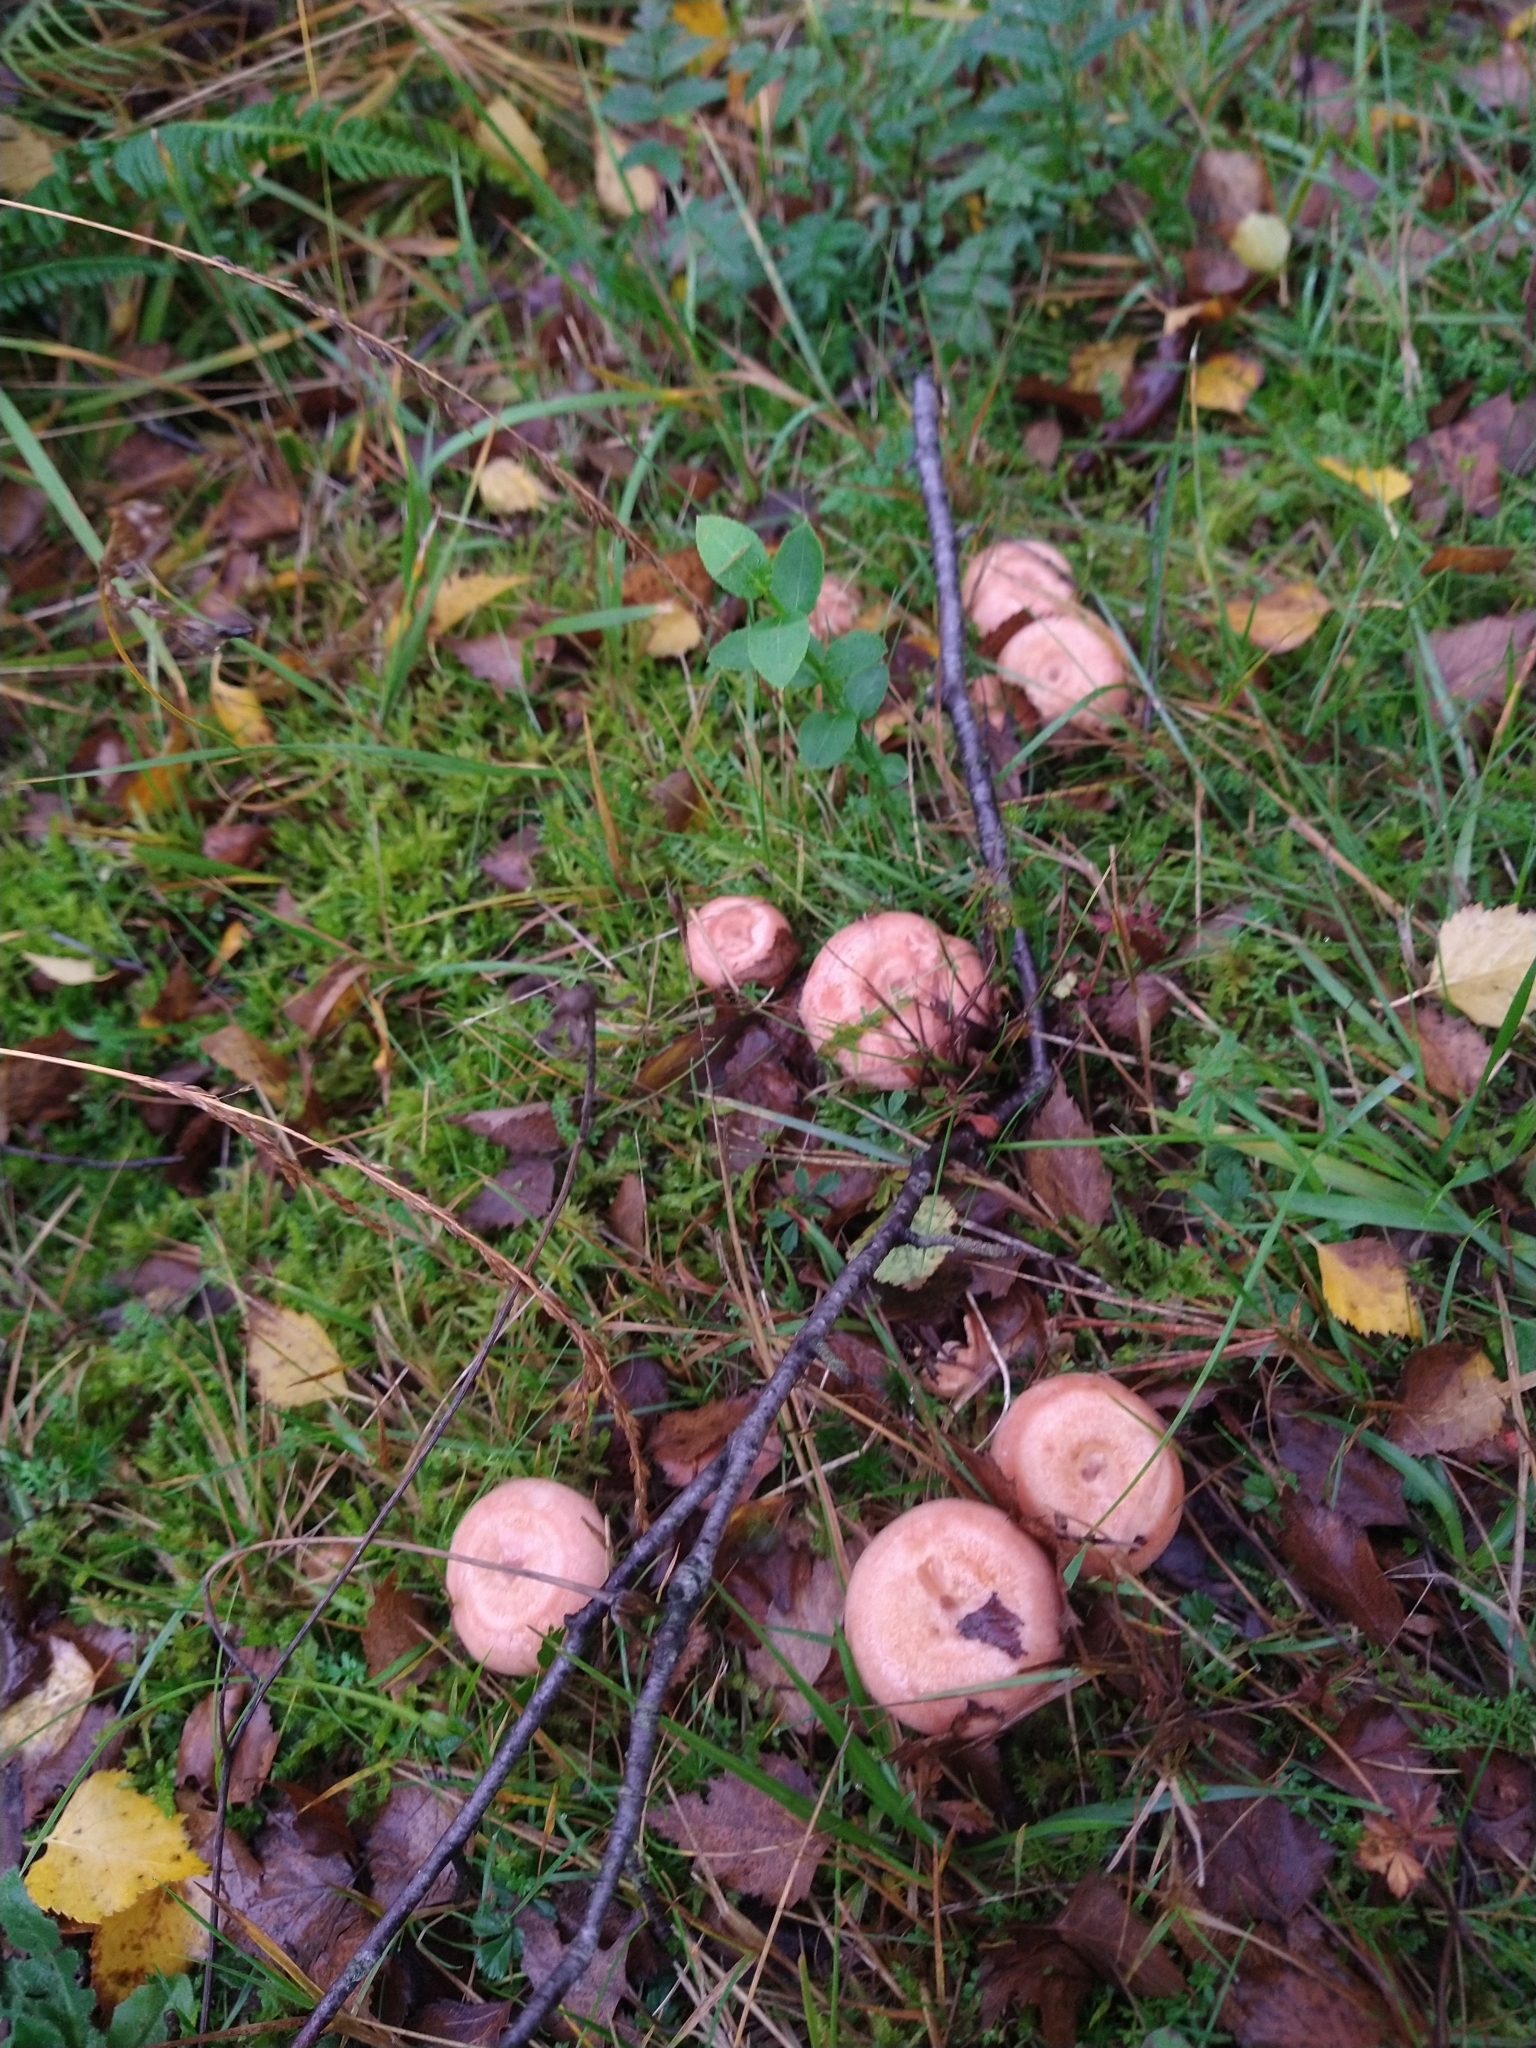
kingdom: Fungi
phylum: Basidiomycota
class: Agaricomycetes
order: Russulales
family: Russulaceae
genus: Lactarius
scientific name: Lactarius torminosus
